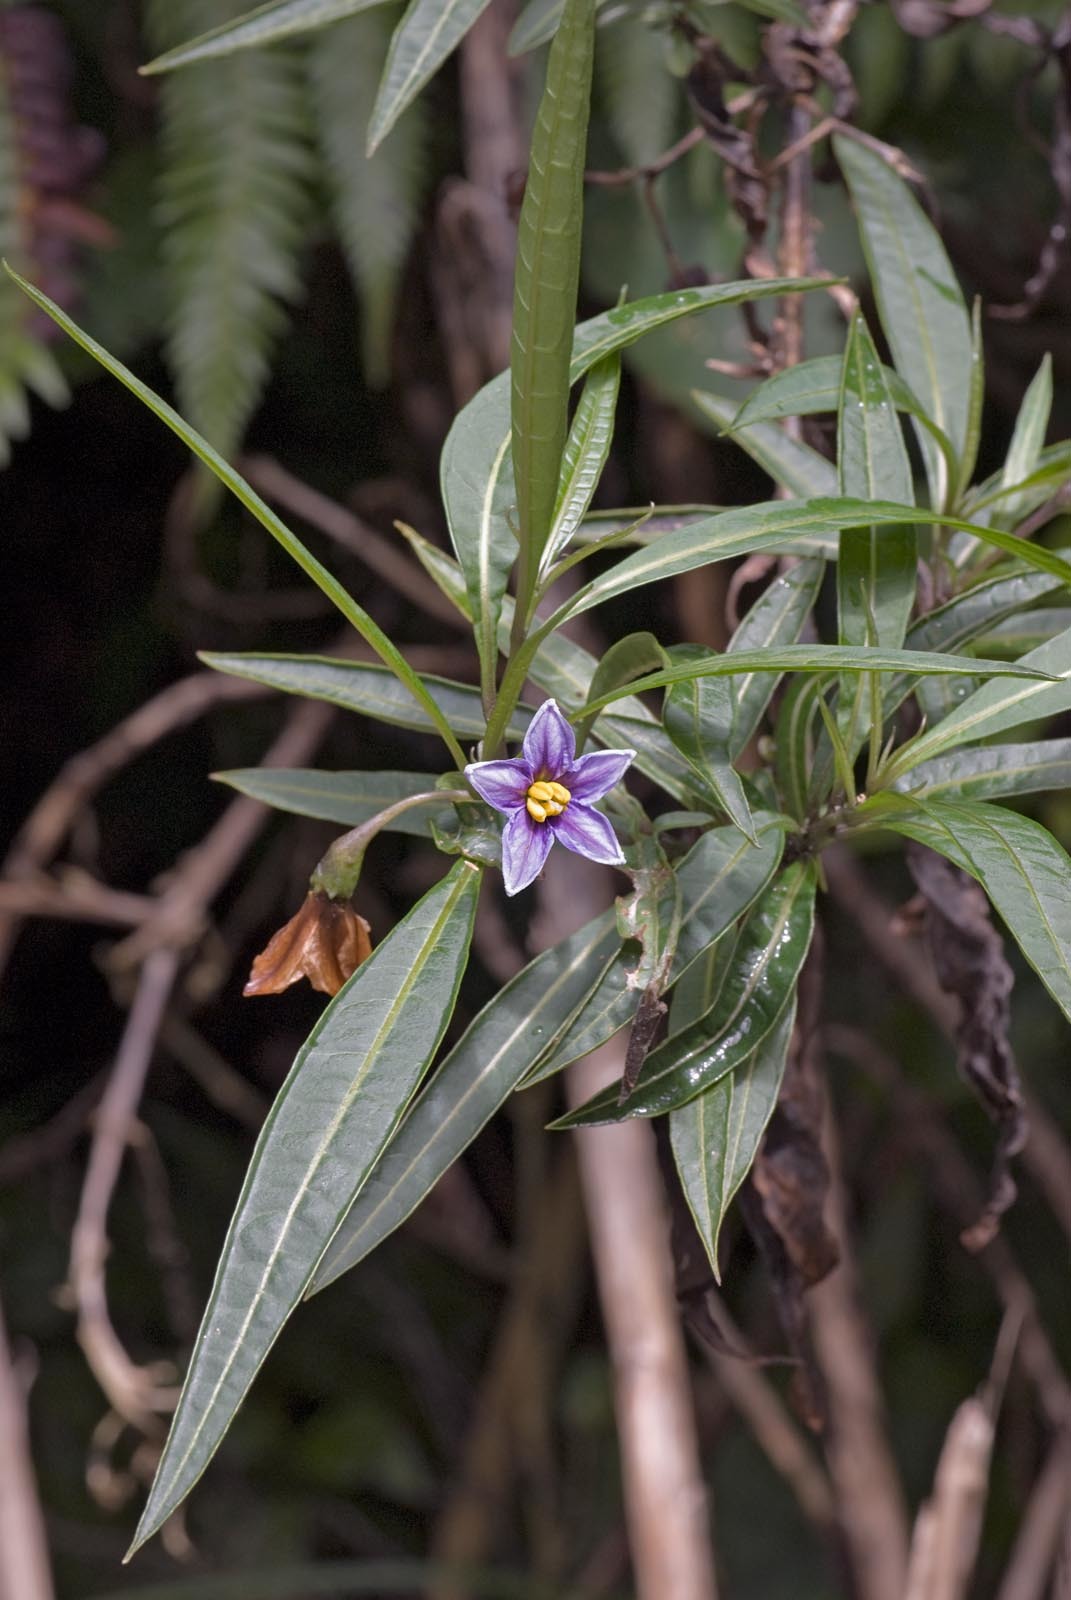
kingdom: Plantae
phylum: Tracheophyta
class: Magnoliopsida
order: Solanales
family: Solanaceae
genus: Solanum
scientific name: Solanum aviculare
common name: New zealand nightshade
